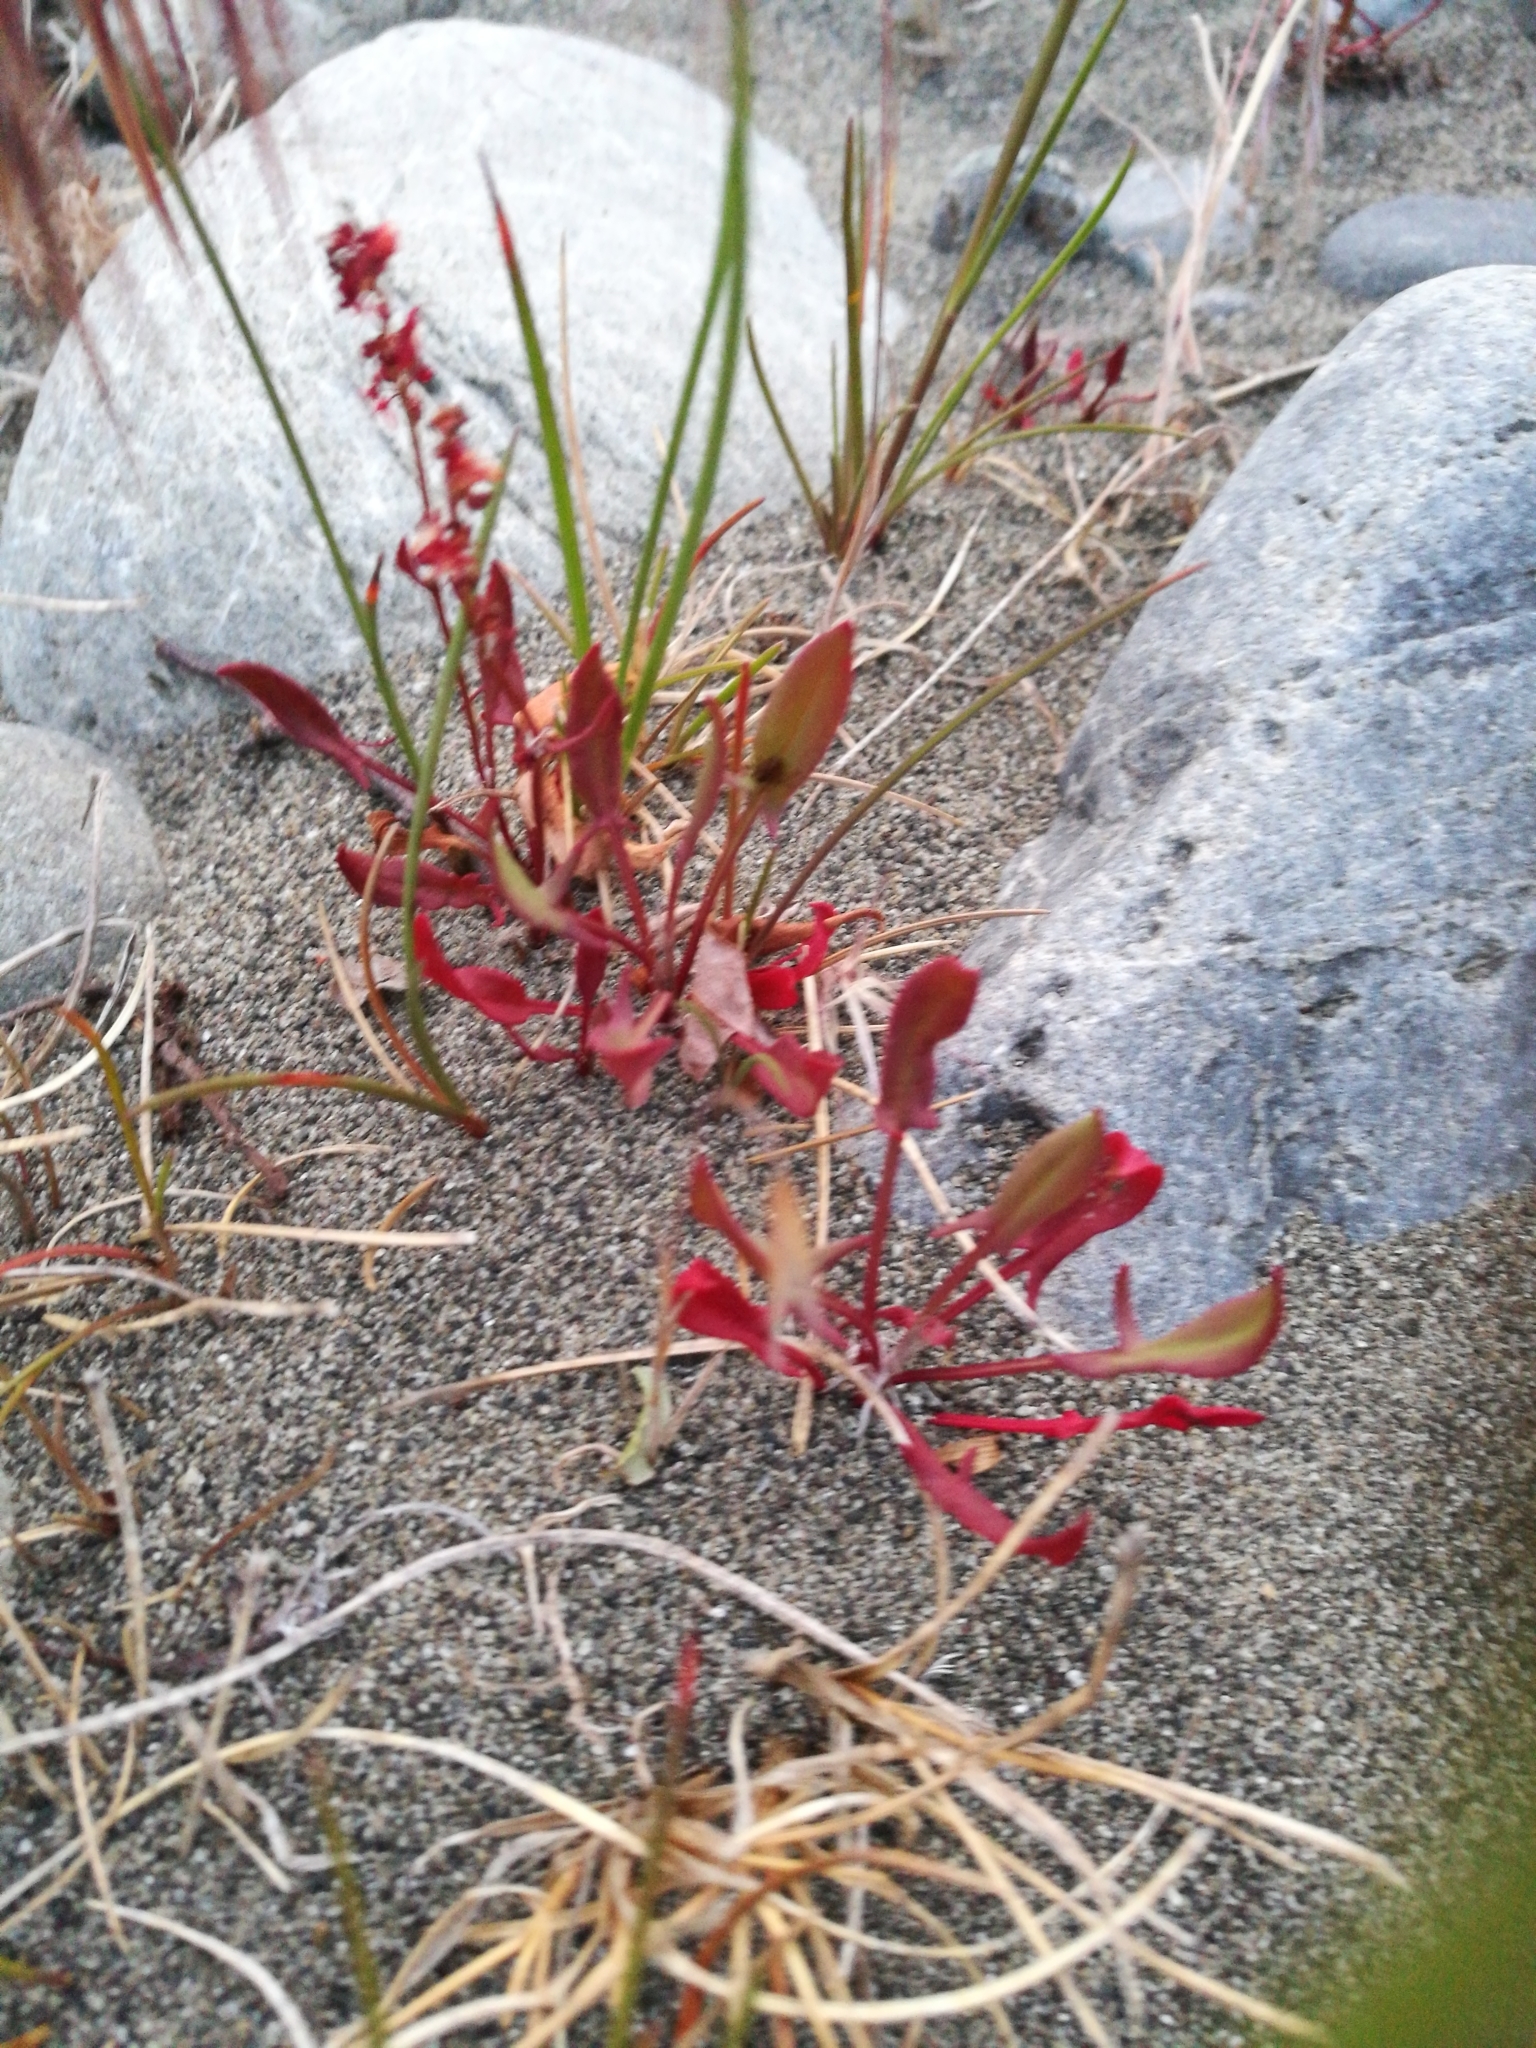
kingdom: Plantae
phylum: Tracheophyta
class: Magnoliopsida
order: Caryophyllales
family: Polygonaceae
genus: Rumex
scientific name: Rumex acetosella
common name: Common sheep sorrel
